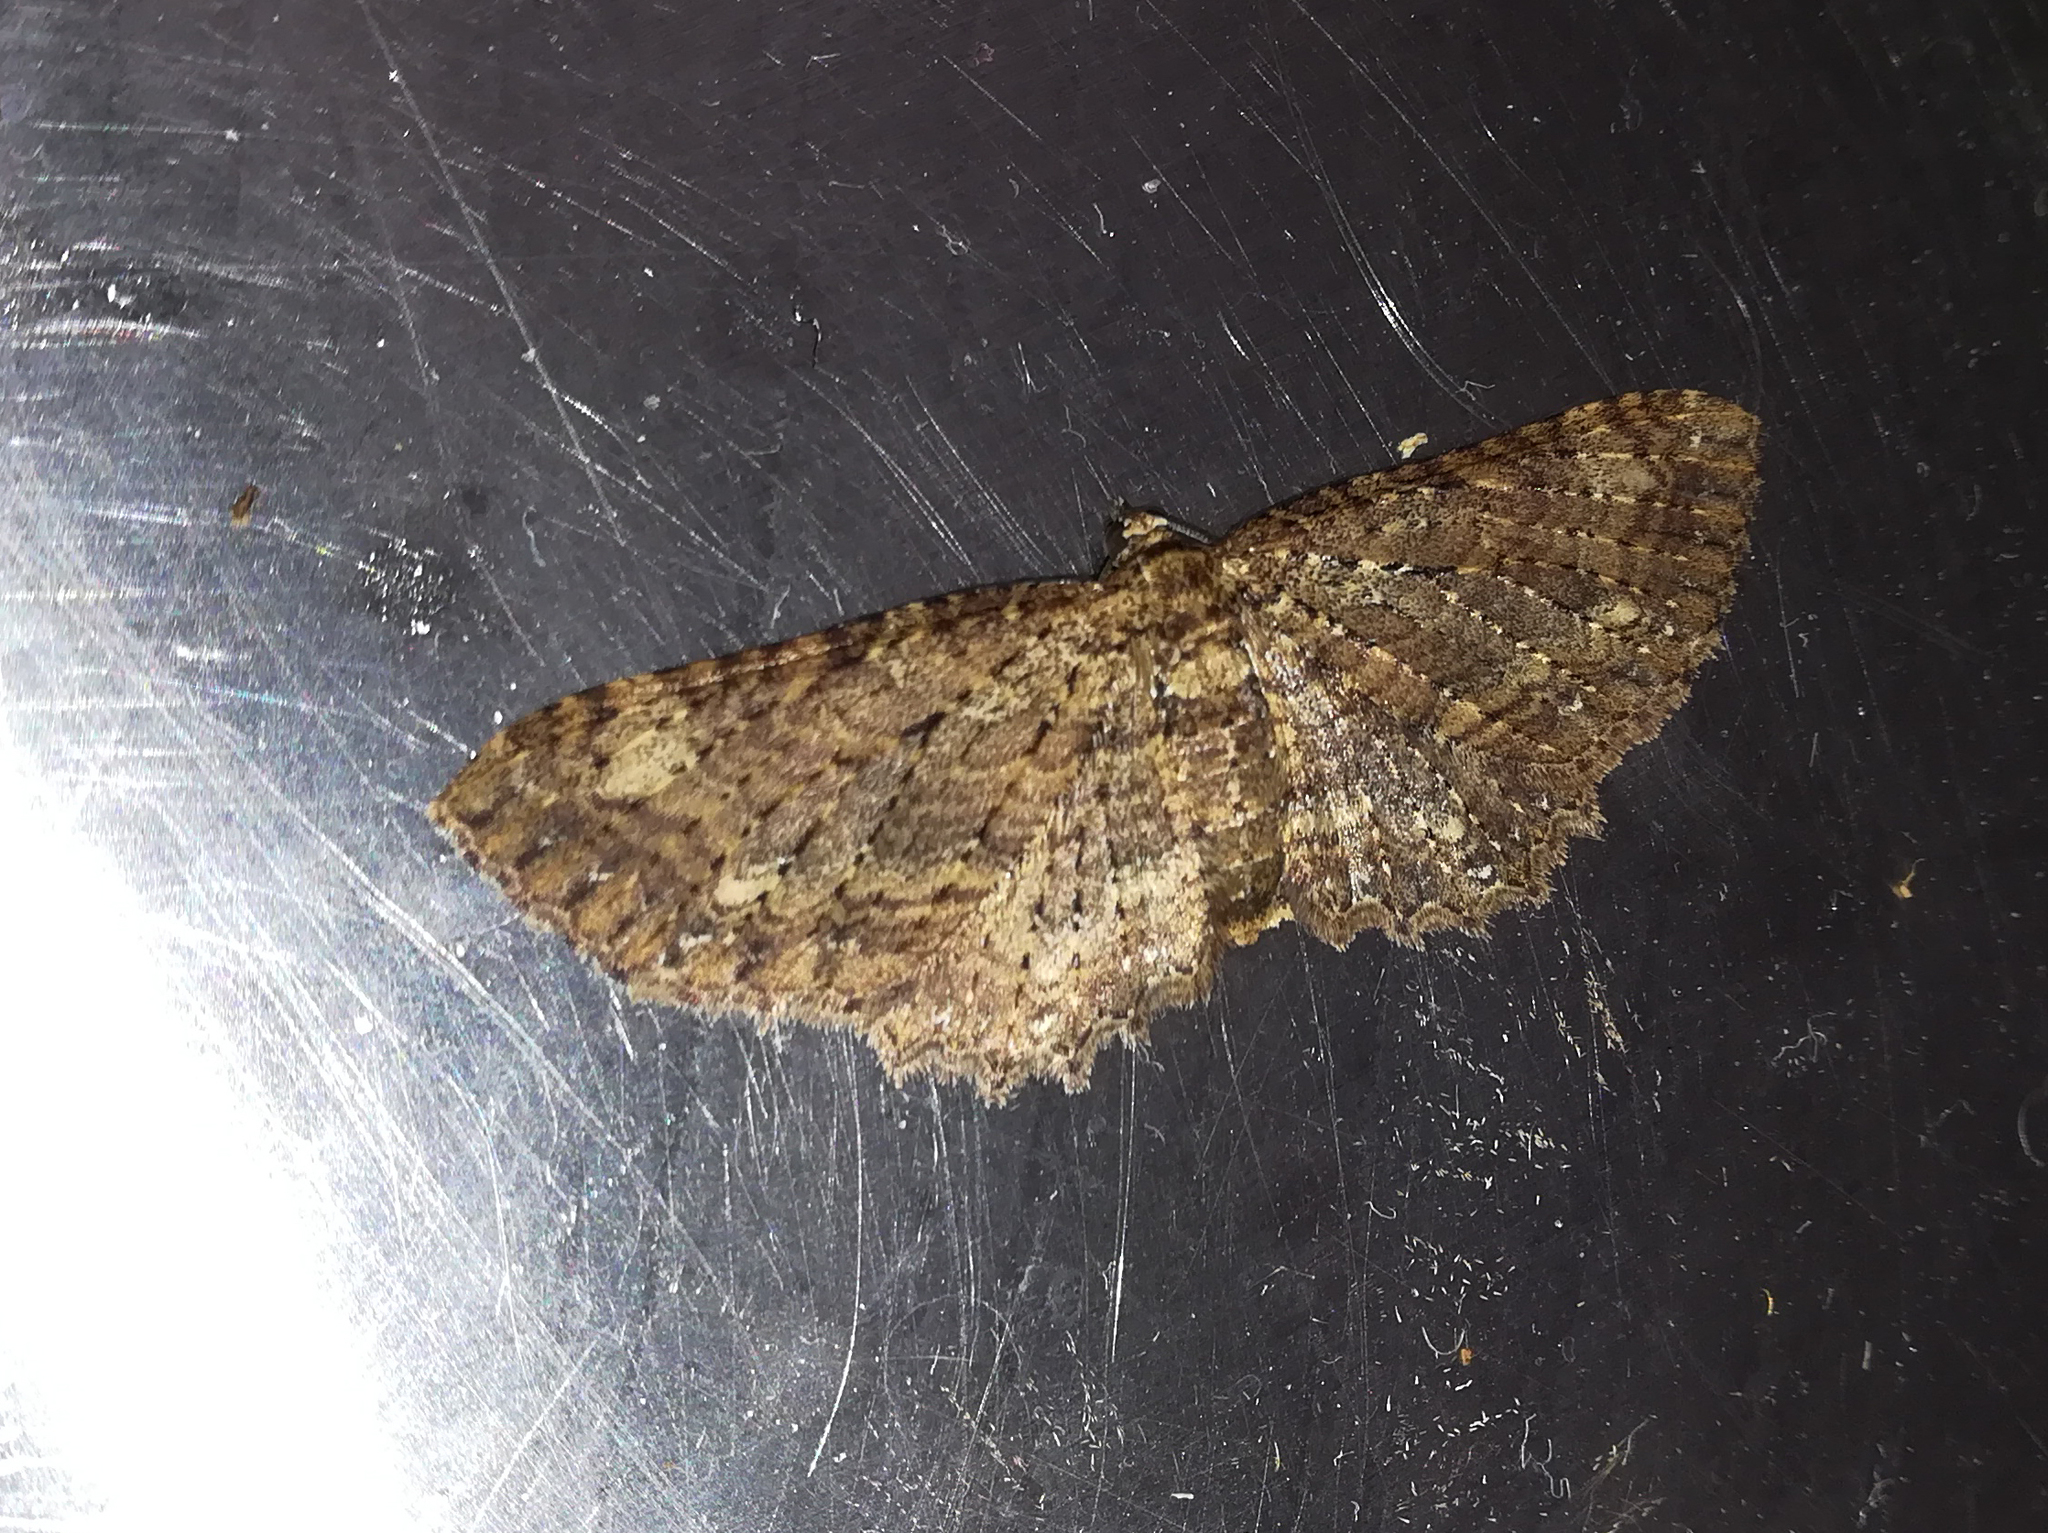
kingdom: Animalia
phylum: Arthropoda
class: Insecta
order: Lepidoptera
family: Geometridae
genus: Eccymatoge
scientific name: Eccymatoge aorista
